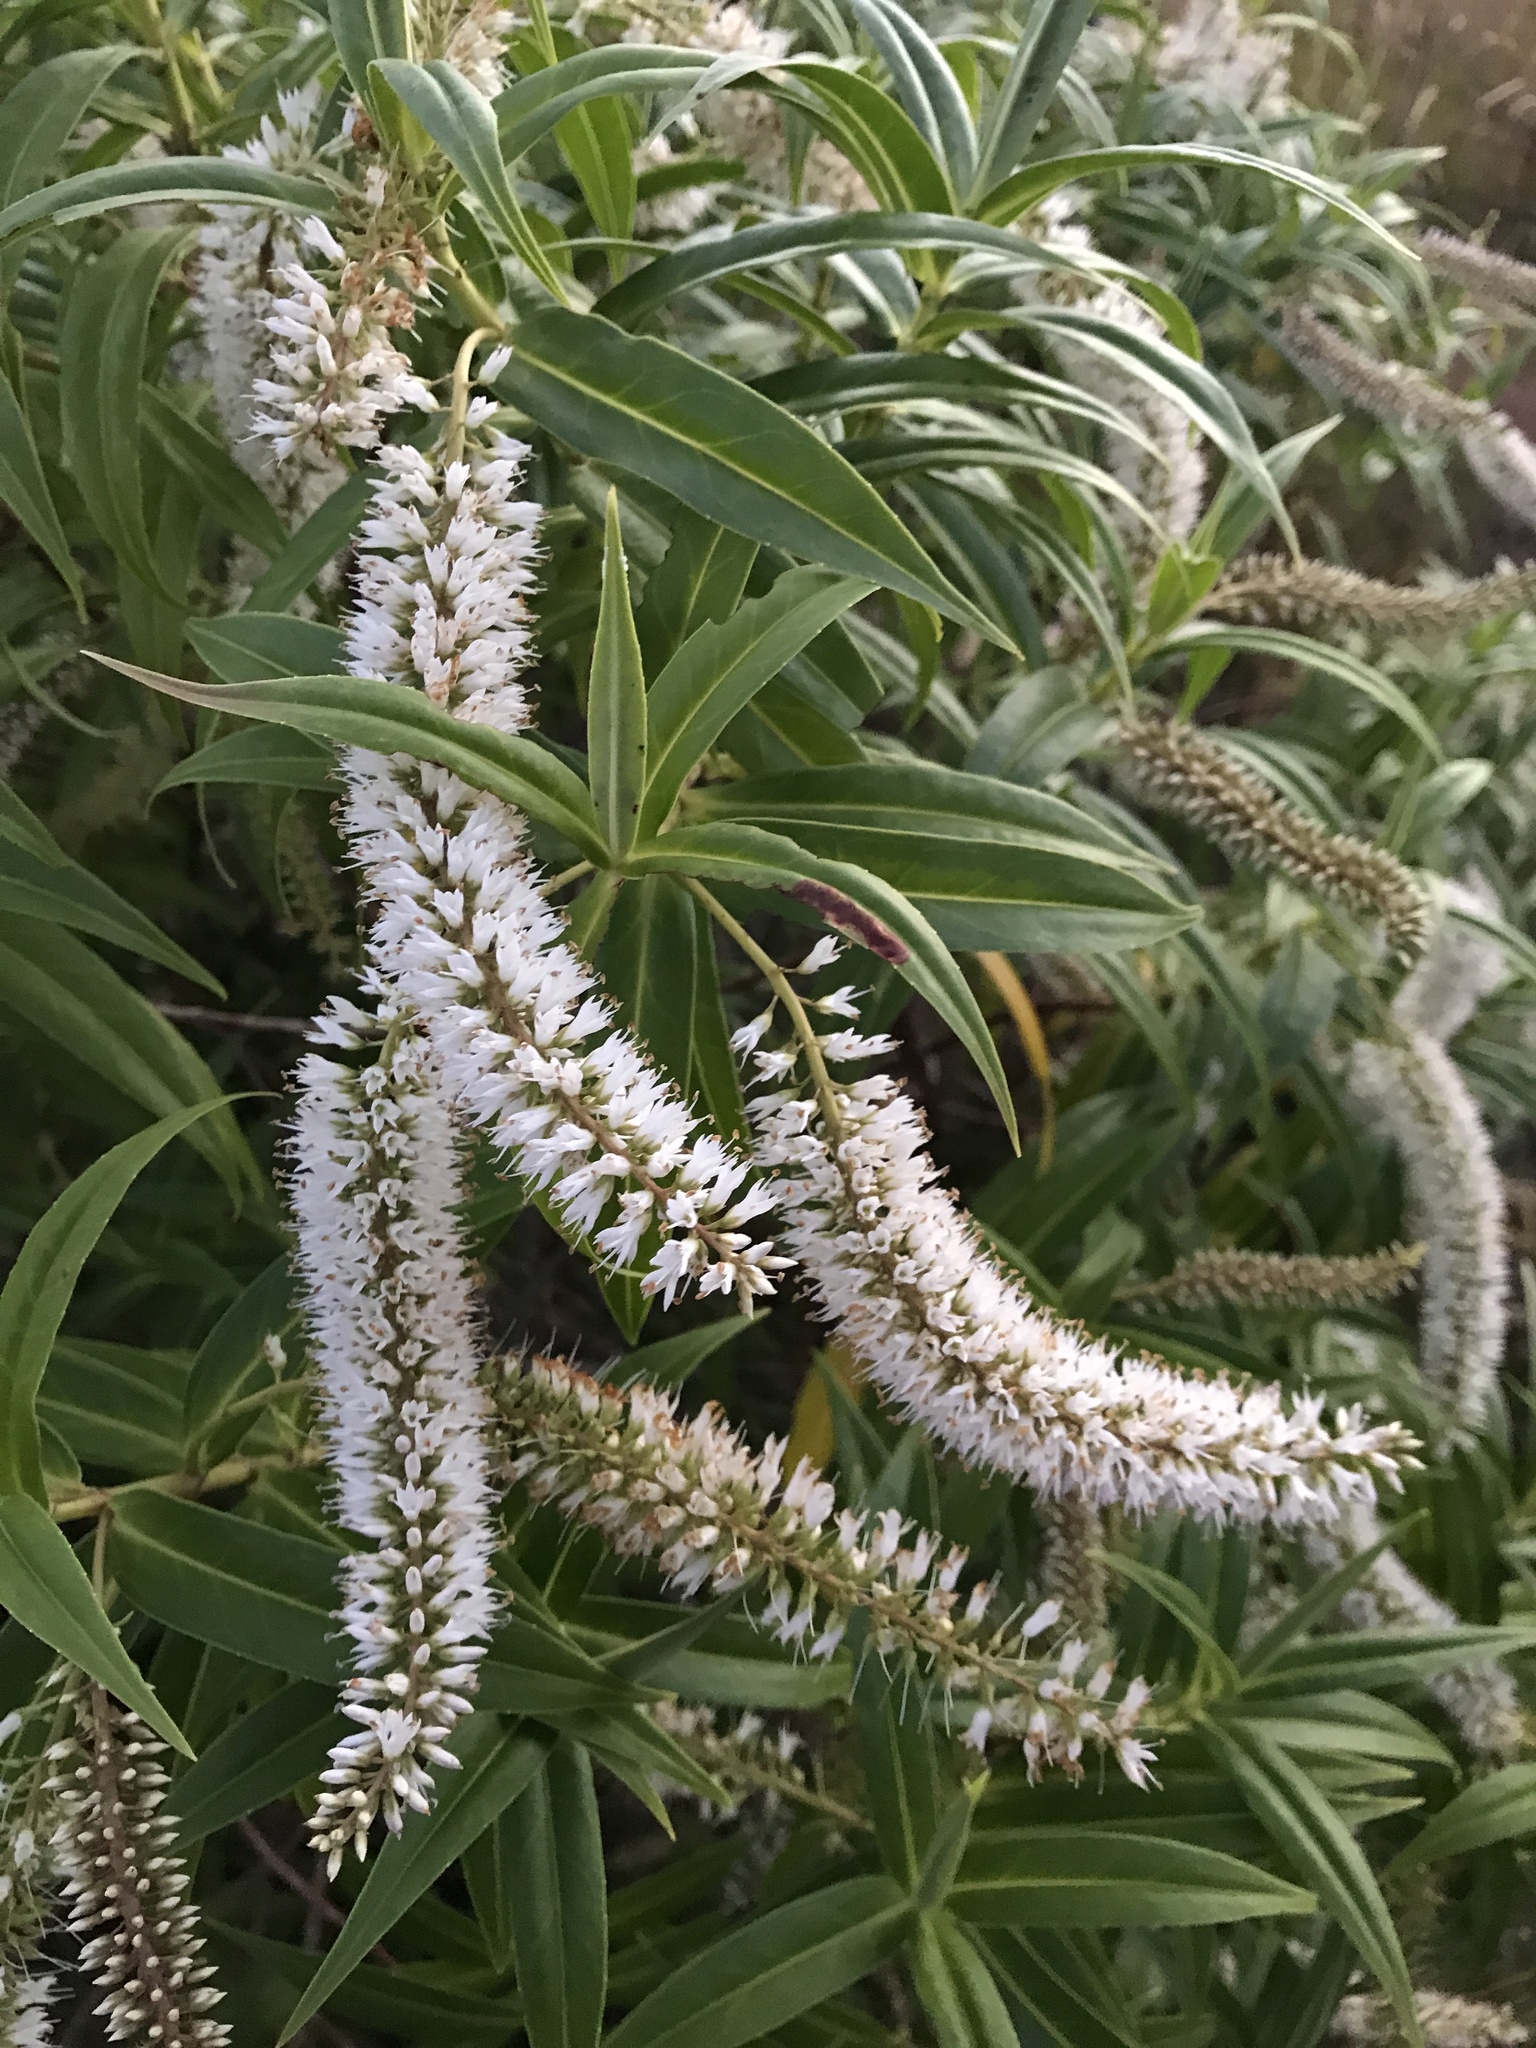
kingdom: Plantae
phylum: Tracheophyta
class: Magnoliopsida
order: Lamiales
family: Plantaginaceae
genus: Veronica
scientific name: Veronica salicifolia
